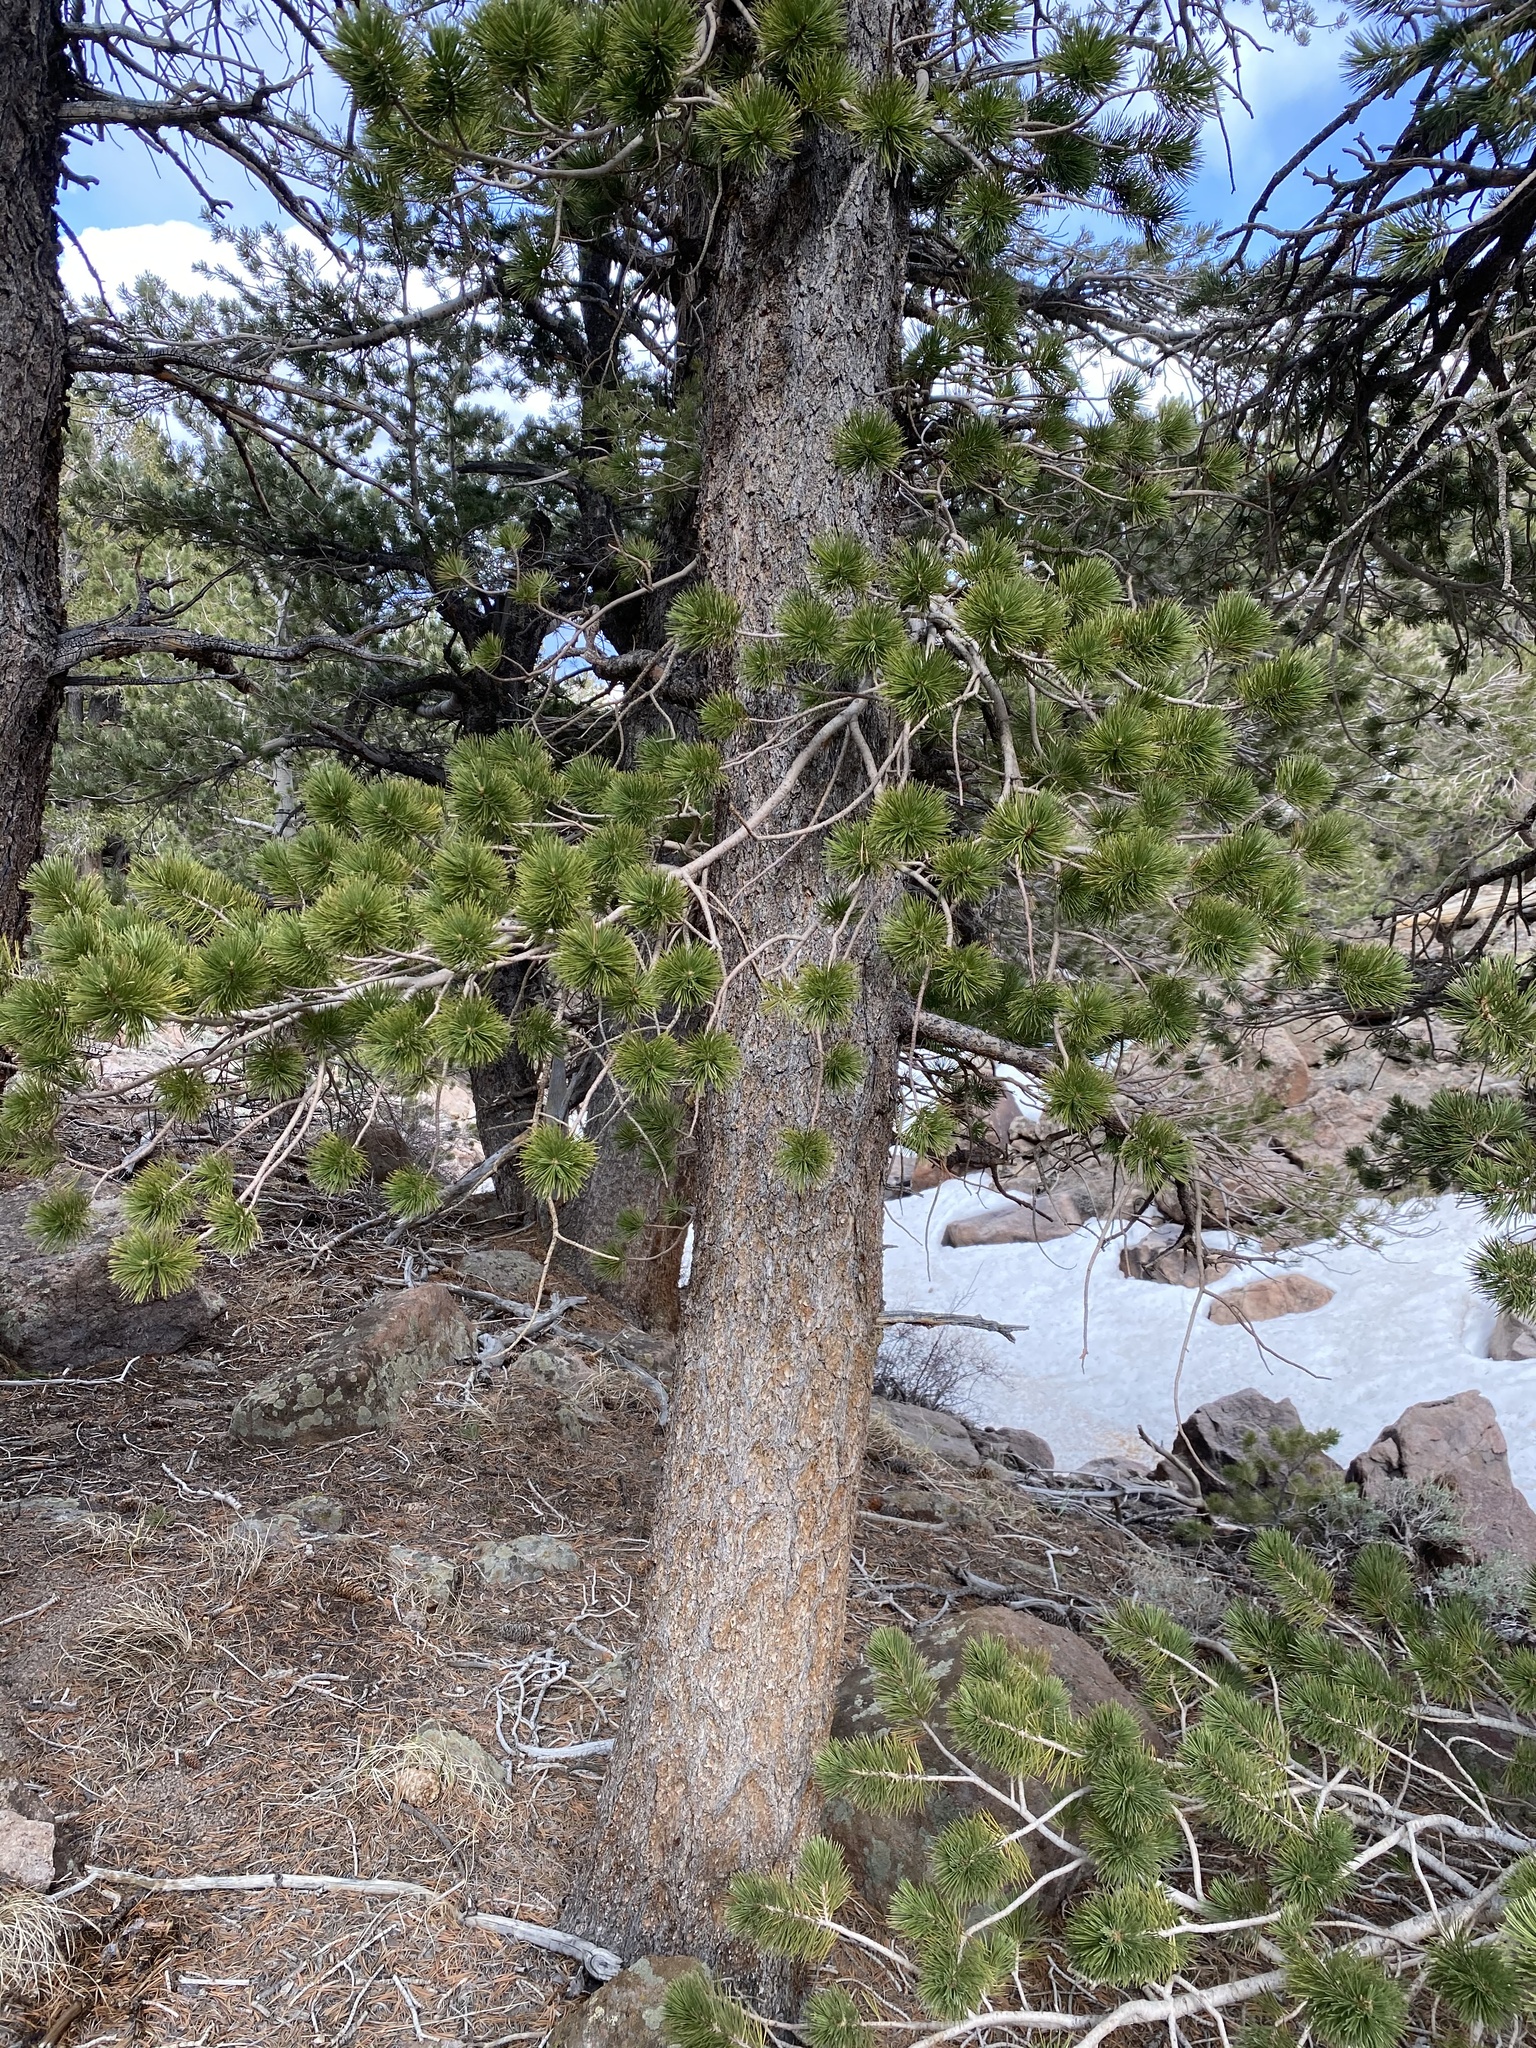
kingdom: Plantae
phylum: Tracheophyta
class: Pinopsida
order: Pinales
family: Pinaceae
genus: Pinus
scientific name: Pinus flexilis
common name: Limber pine
